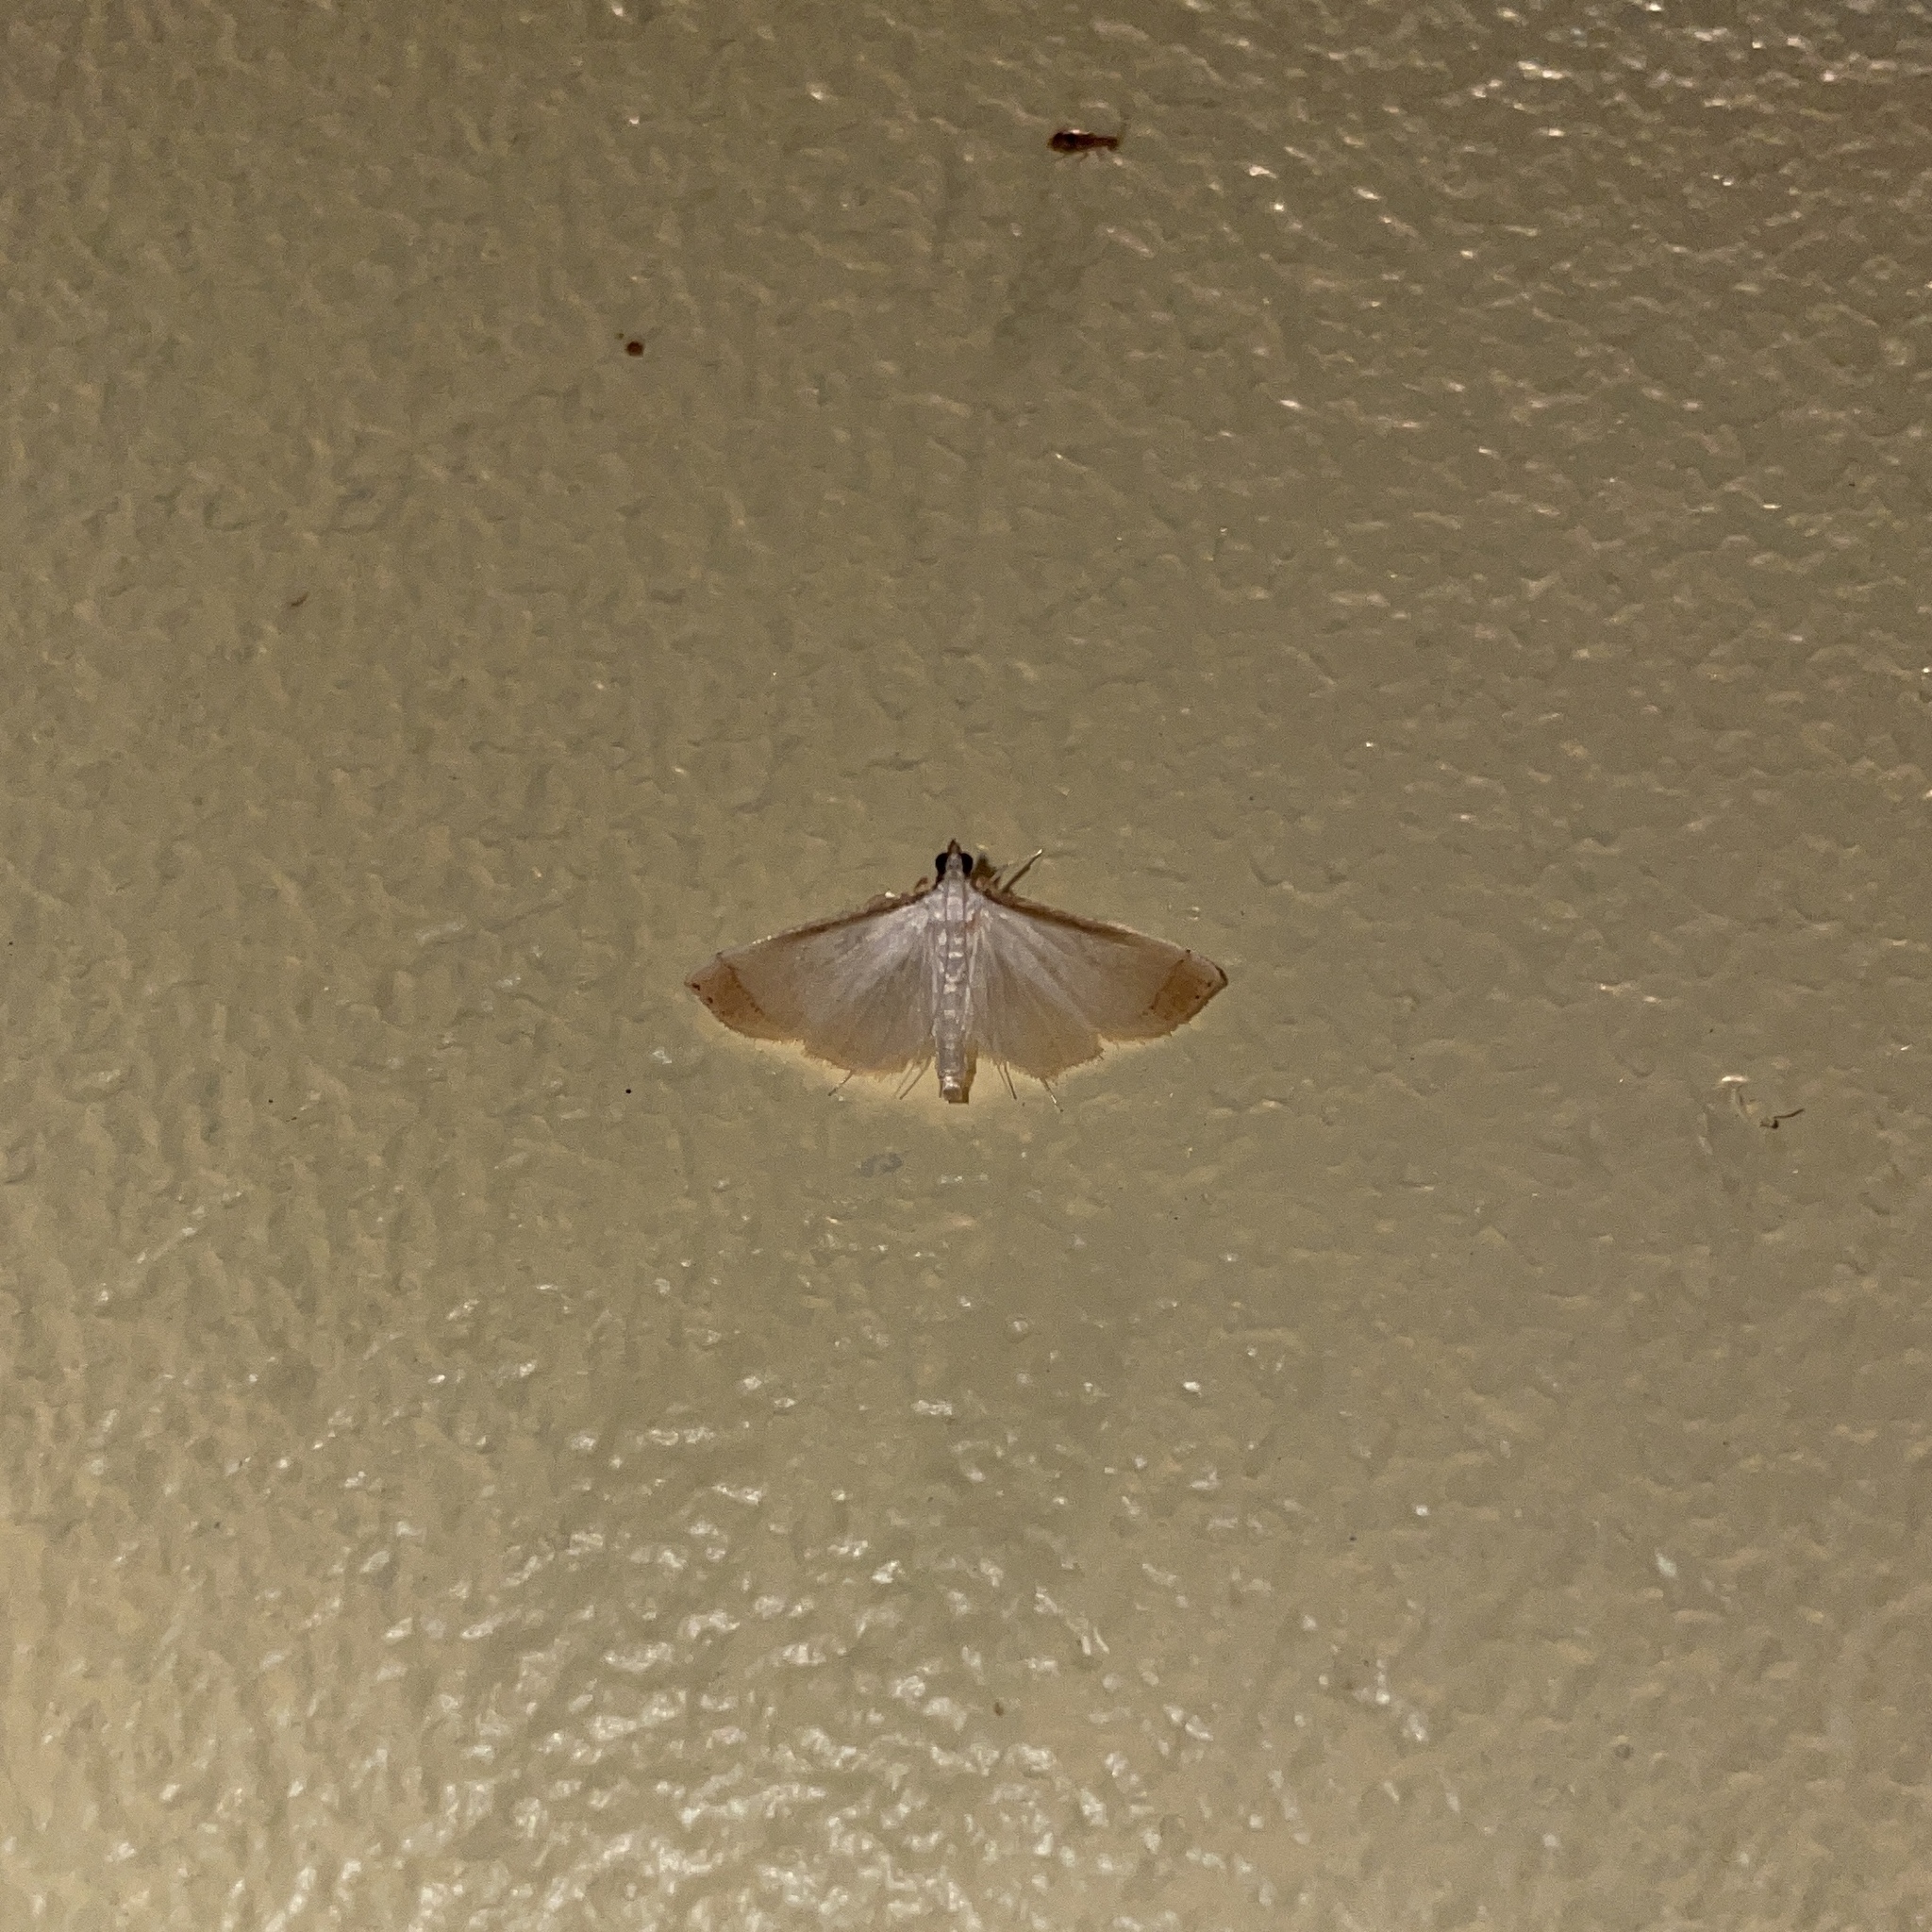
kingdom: Animalia
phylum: Arthropoda
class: Insecta
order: Lepidoptera
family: Crambidae
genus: Stenia
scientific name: Stenia saurialis
